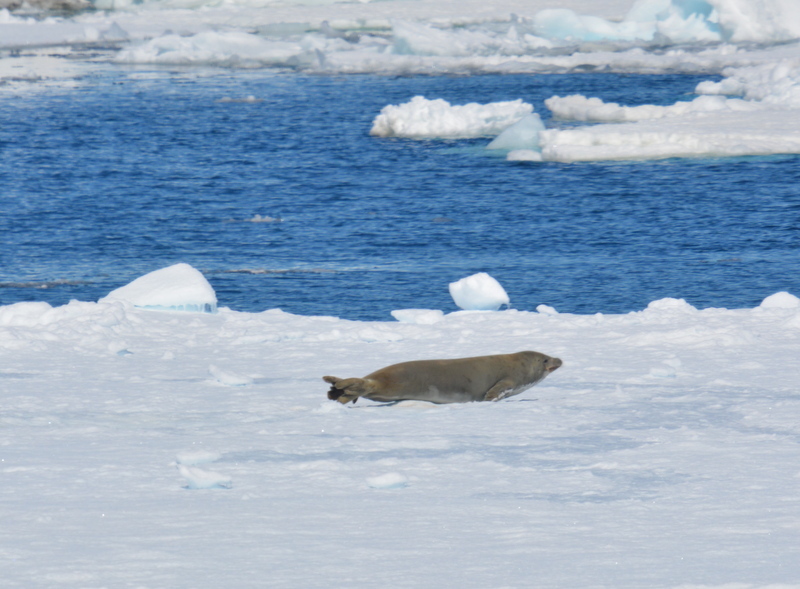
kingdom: Animalia
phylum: Chordata
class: Mammalia
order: Carnivora
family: Phocidae
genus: Lobodon
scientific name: Lobodon carcinophaga
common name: Crabeater seal
